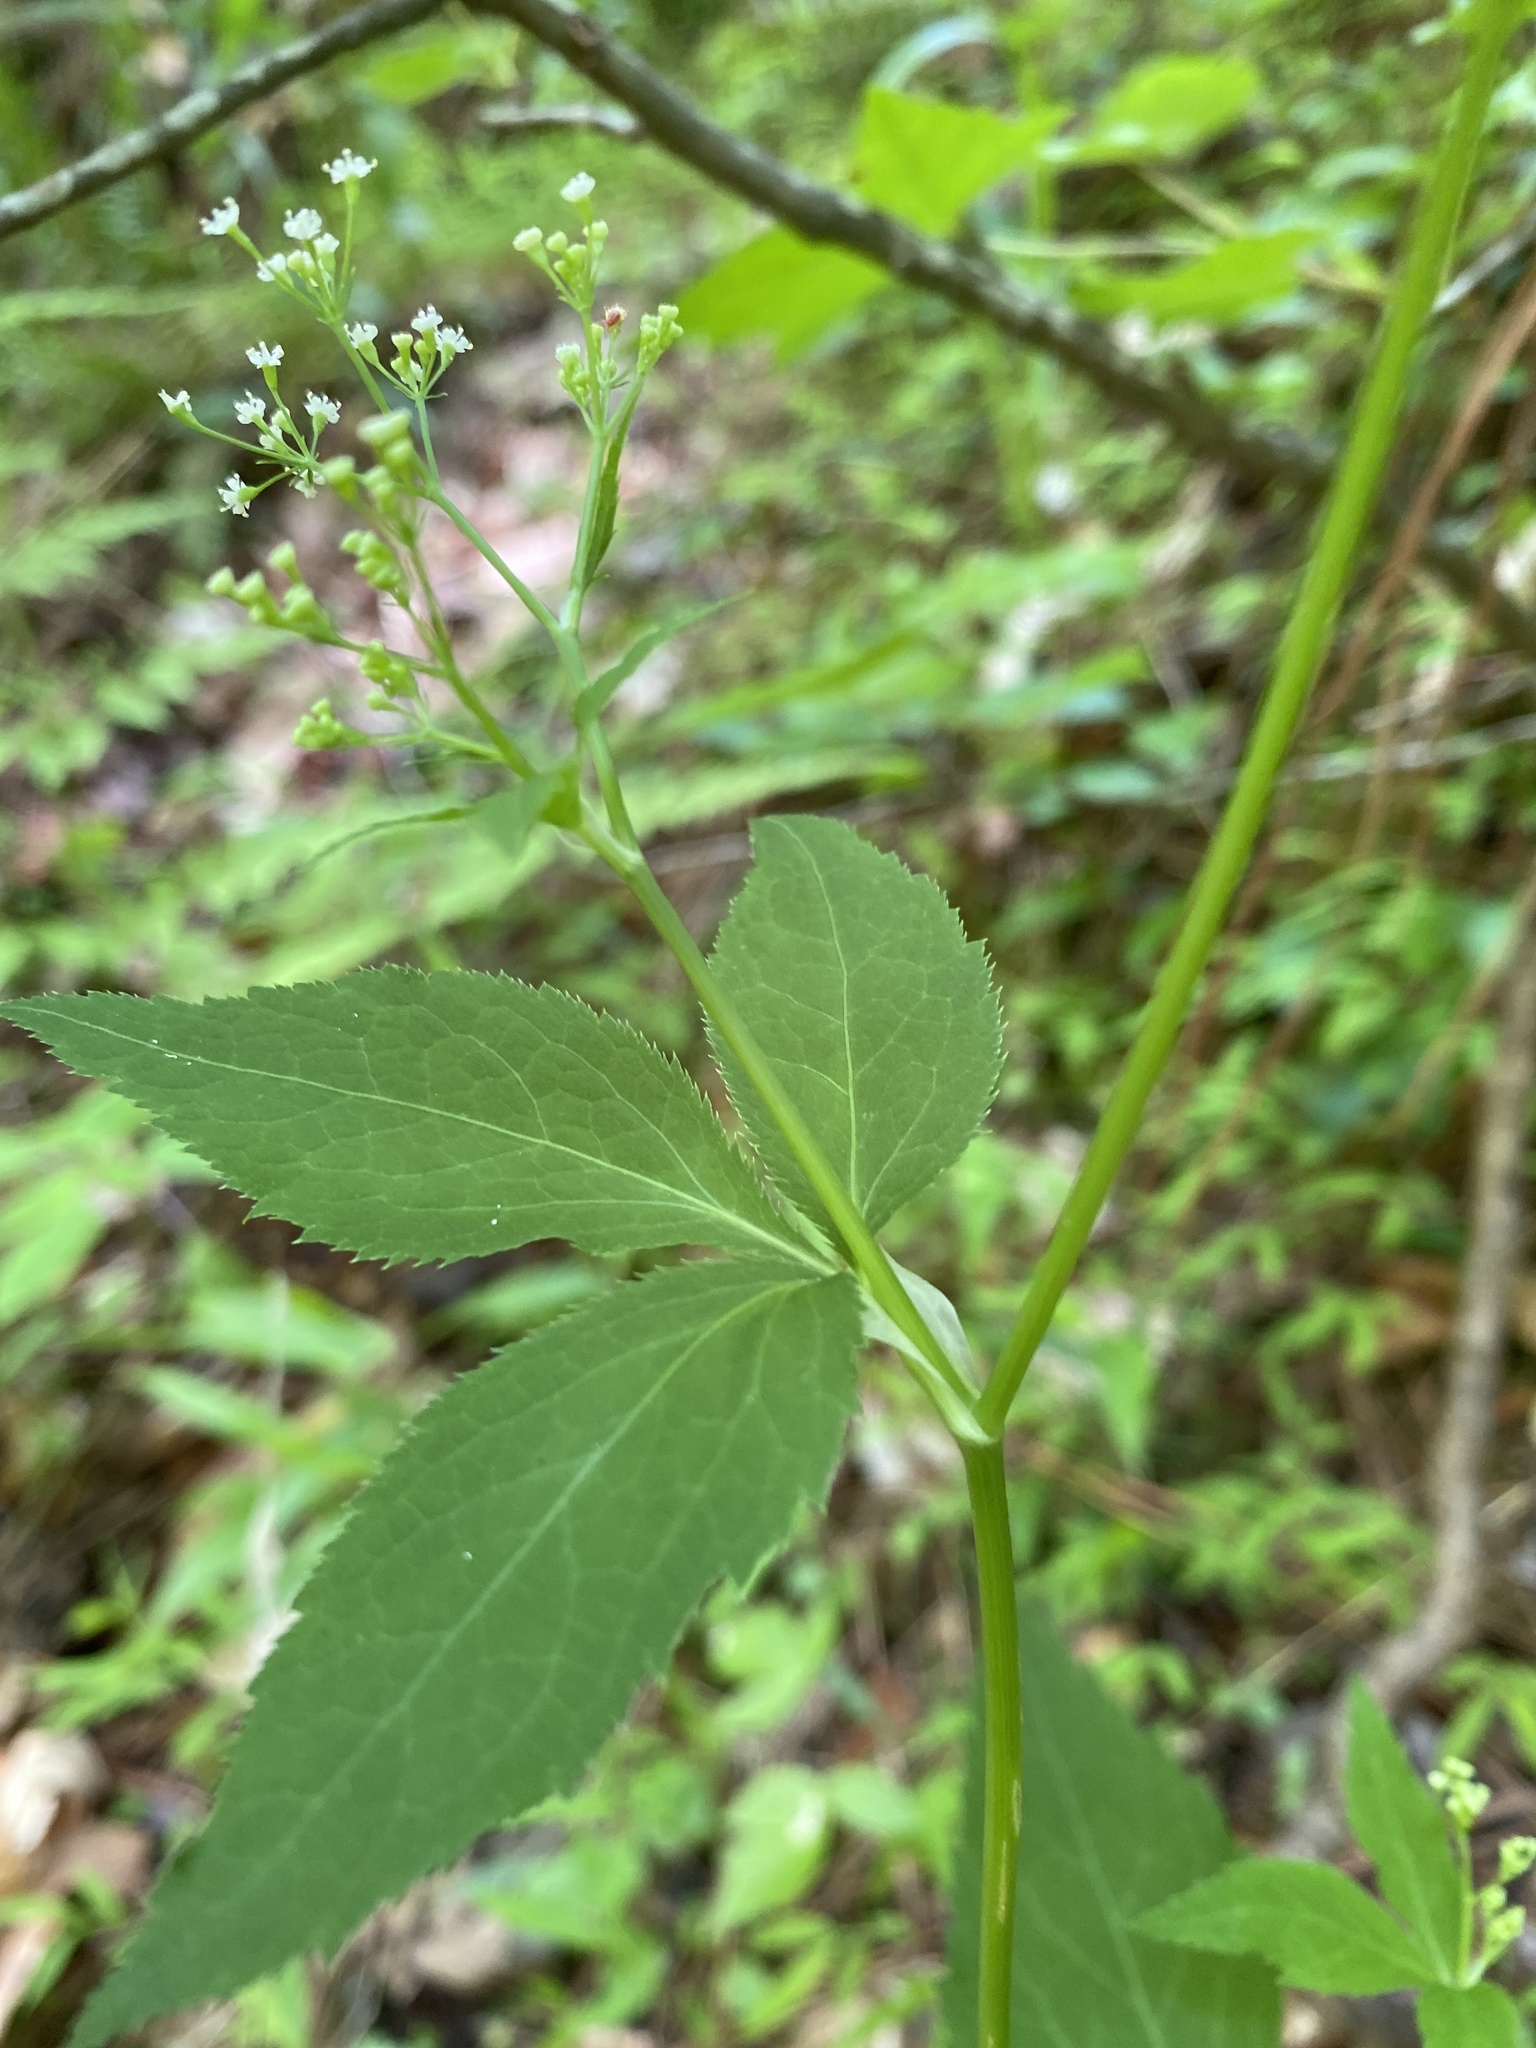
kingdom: Plantae
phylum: Tracheophyta
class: Magnoliopsida
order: Apiales
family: Apiaceae
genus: Cryptotaenia
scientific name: Cryptotaenia canadensis
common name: Honewort
